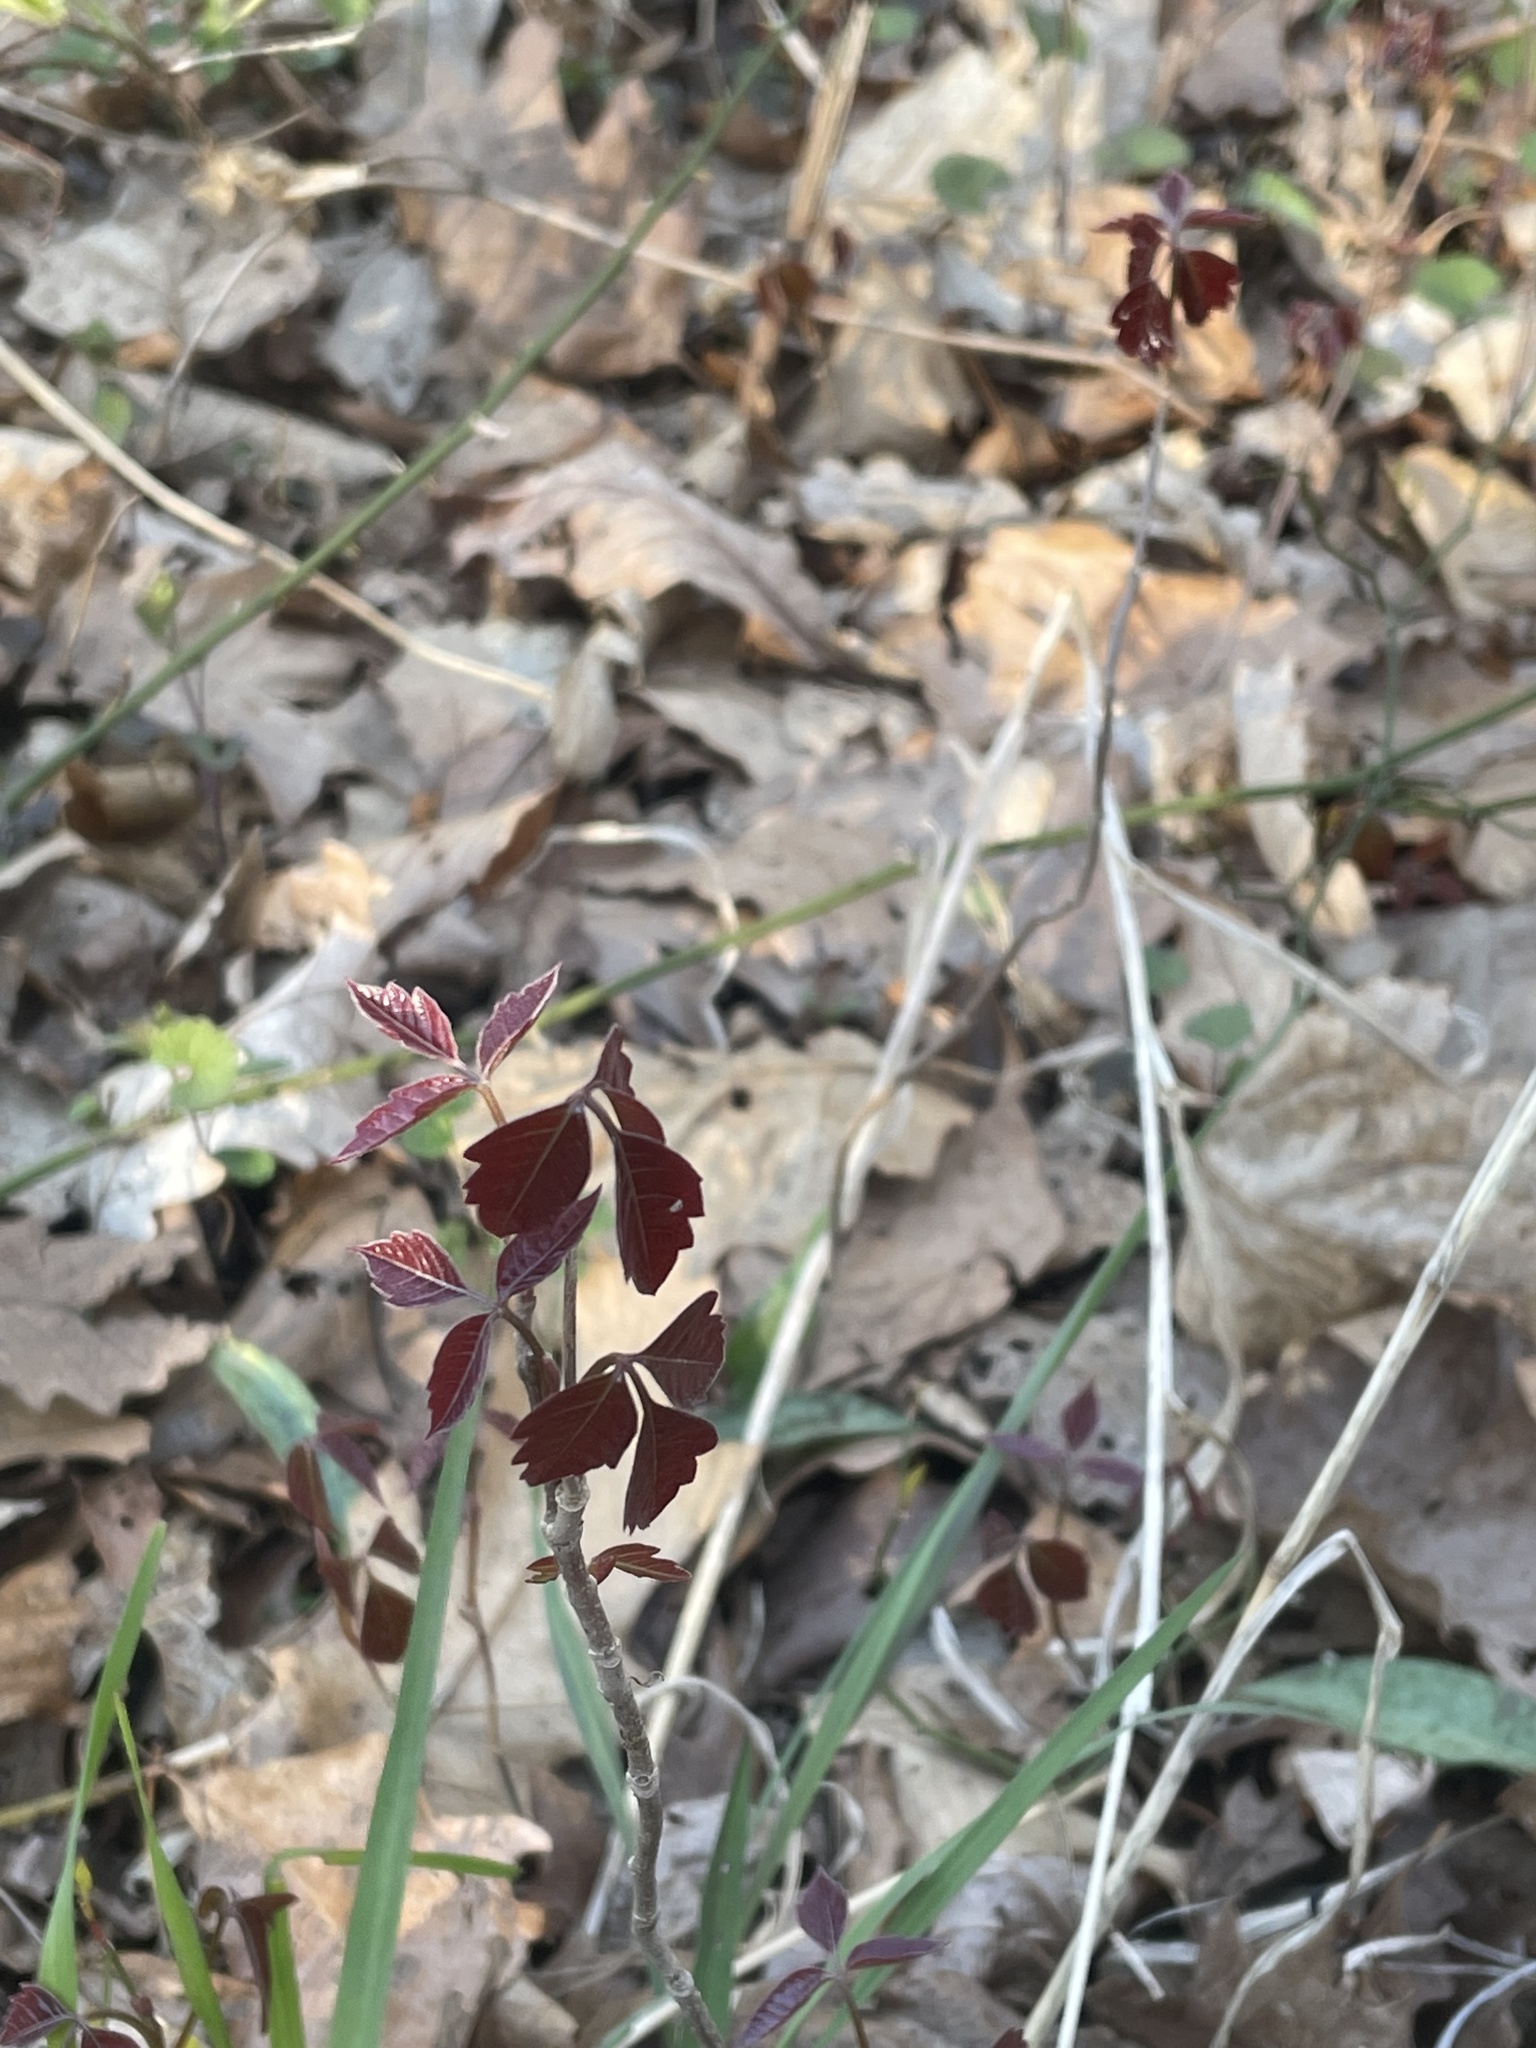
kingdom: Plantae
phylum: Tracheophyta
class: Magnoliopsida
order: Sapindales
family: Anacardiaceae
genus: Toxicodendron
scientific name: Toxicodendron radicans
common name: Poison ivy
